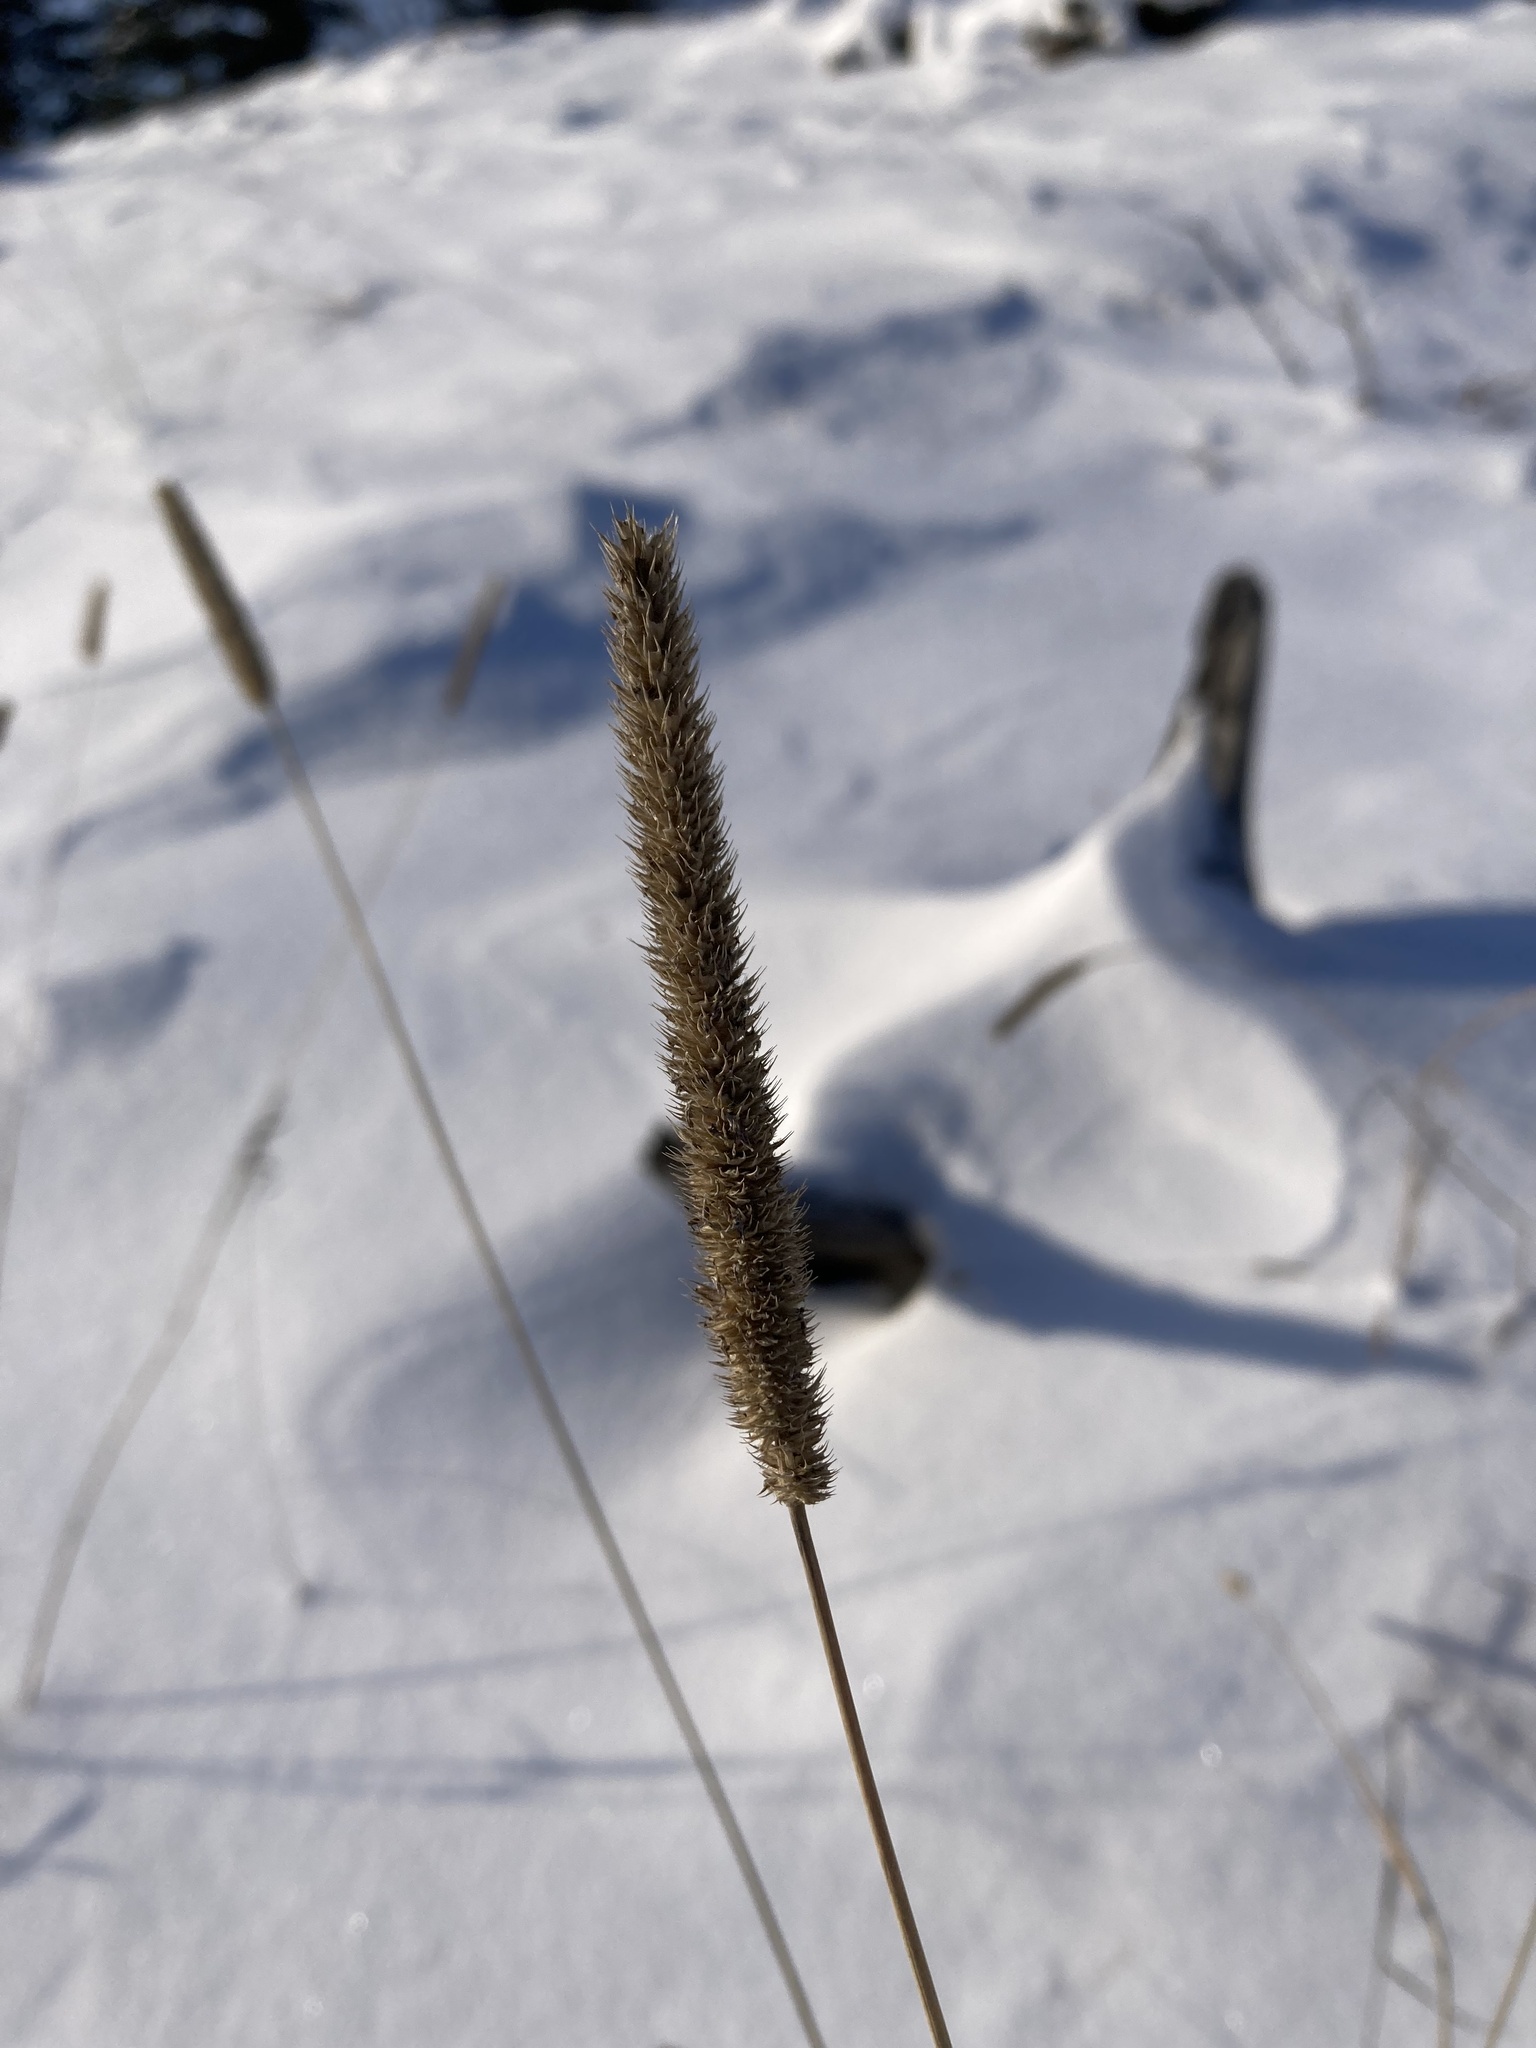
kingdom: Plantae
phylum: Tracheophyta
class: Liliopsida
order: Poales
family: Poaceae
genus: Phleum
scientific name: Phleum pratense
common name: Timothy grass
